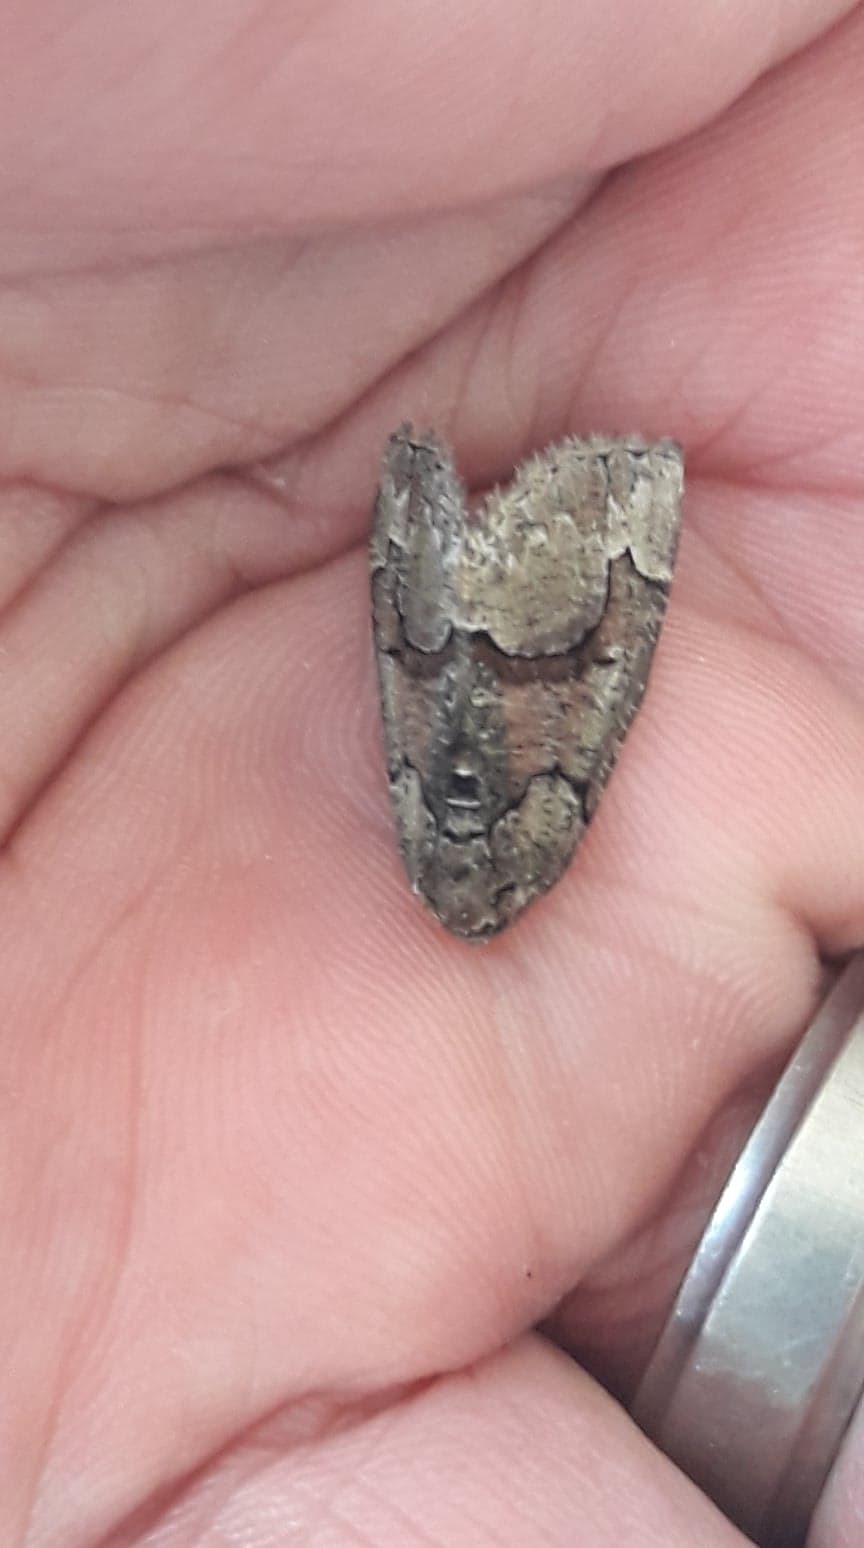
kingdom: Animalia
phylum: Arthropoda
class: Insecta
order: Lepidoptera
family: Geometridae
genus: Asovia
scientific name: Asovia maeoticaria
